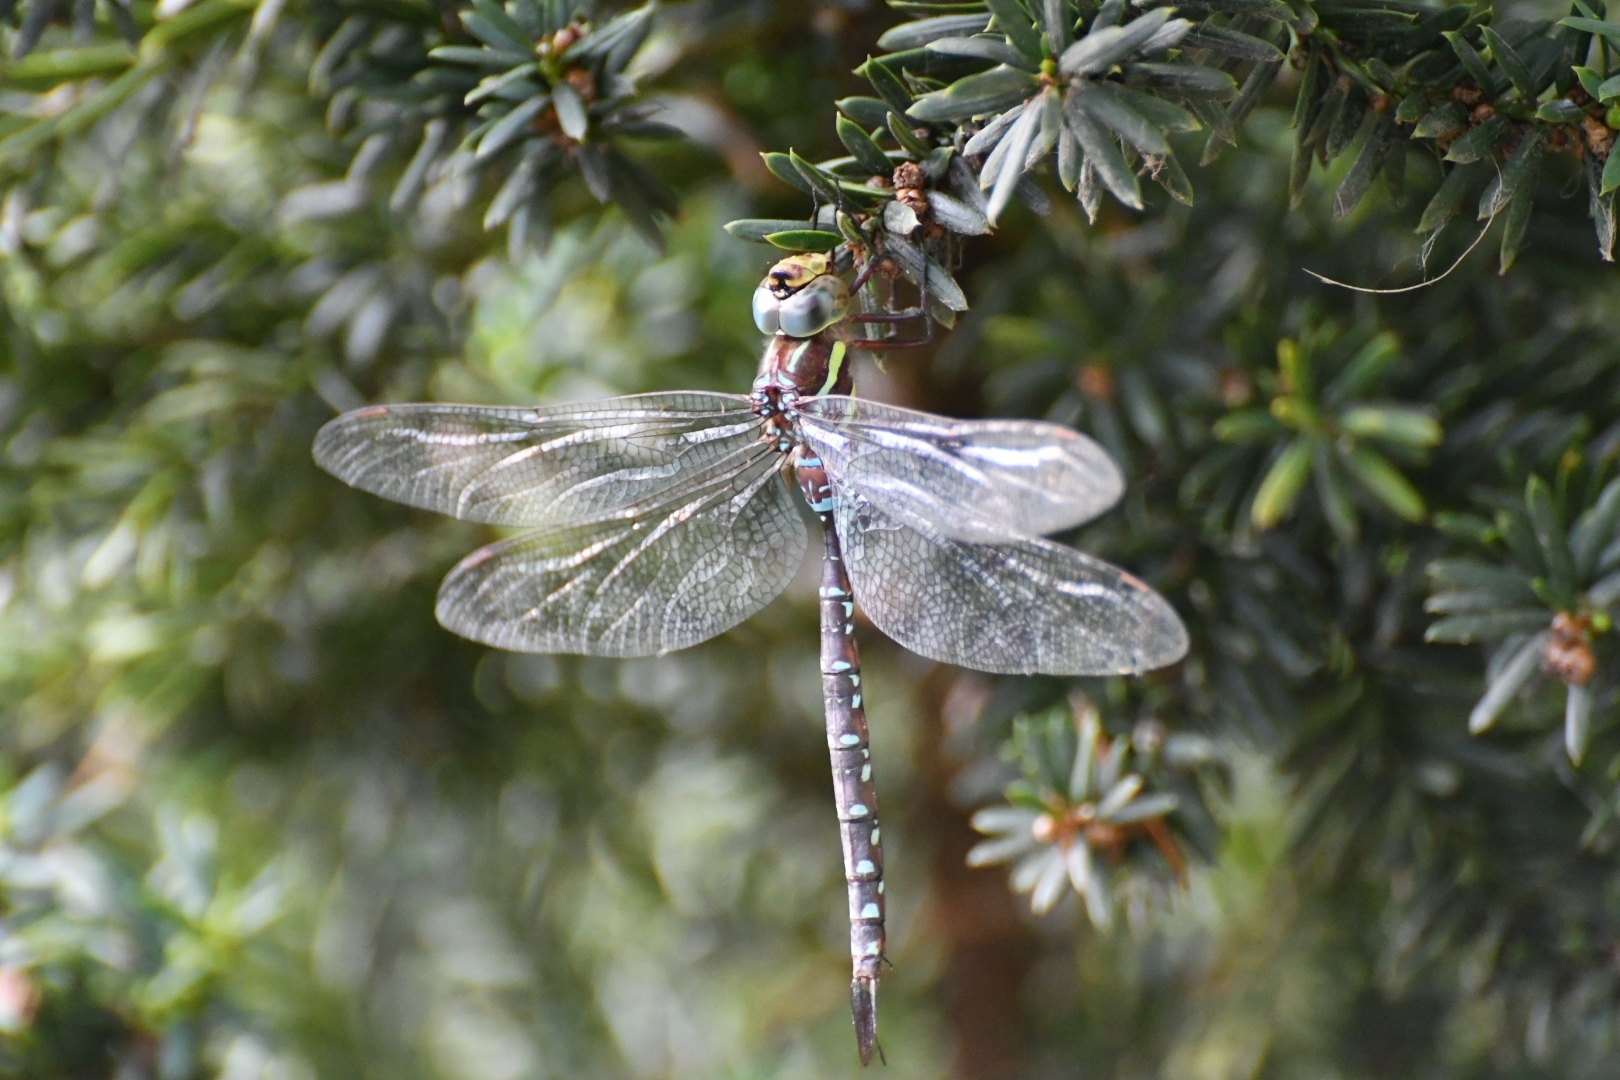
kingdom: Animalia
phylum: Arthropoda
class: Insecta
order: Odonata
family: Aeshnidae
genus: Aeshna
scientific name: Aeshna tuberculifera
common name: Aeschne à tubercules
